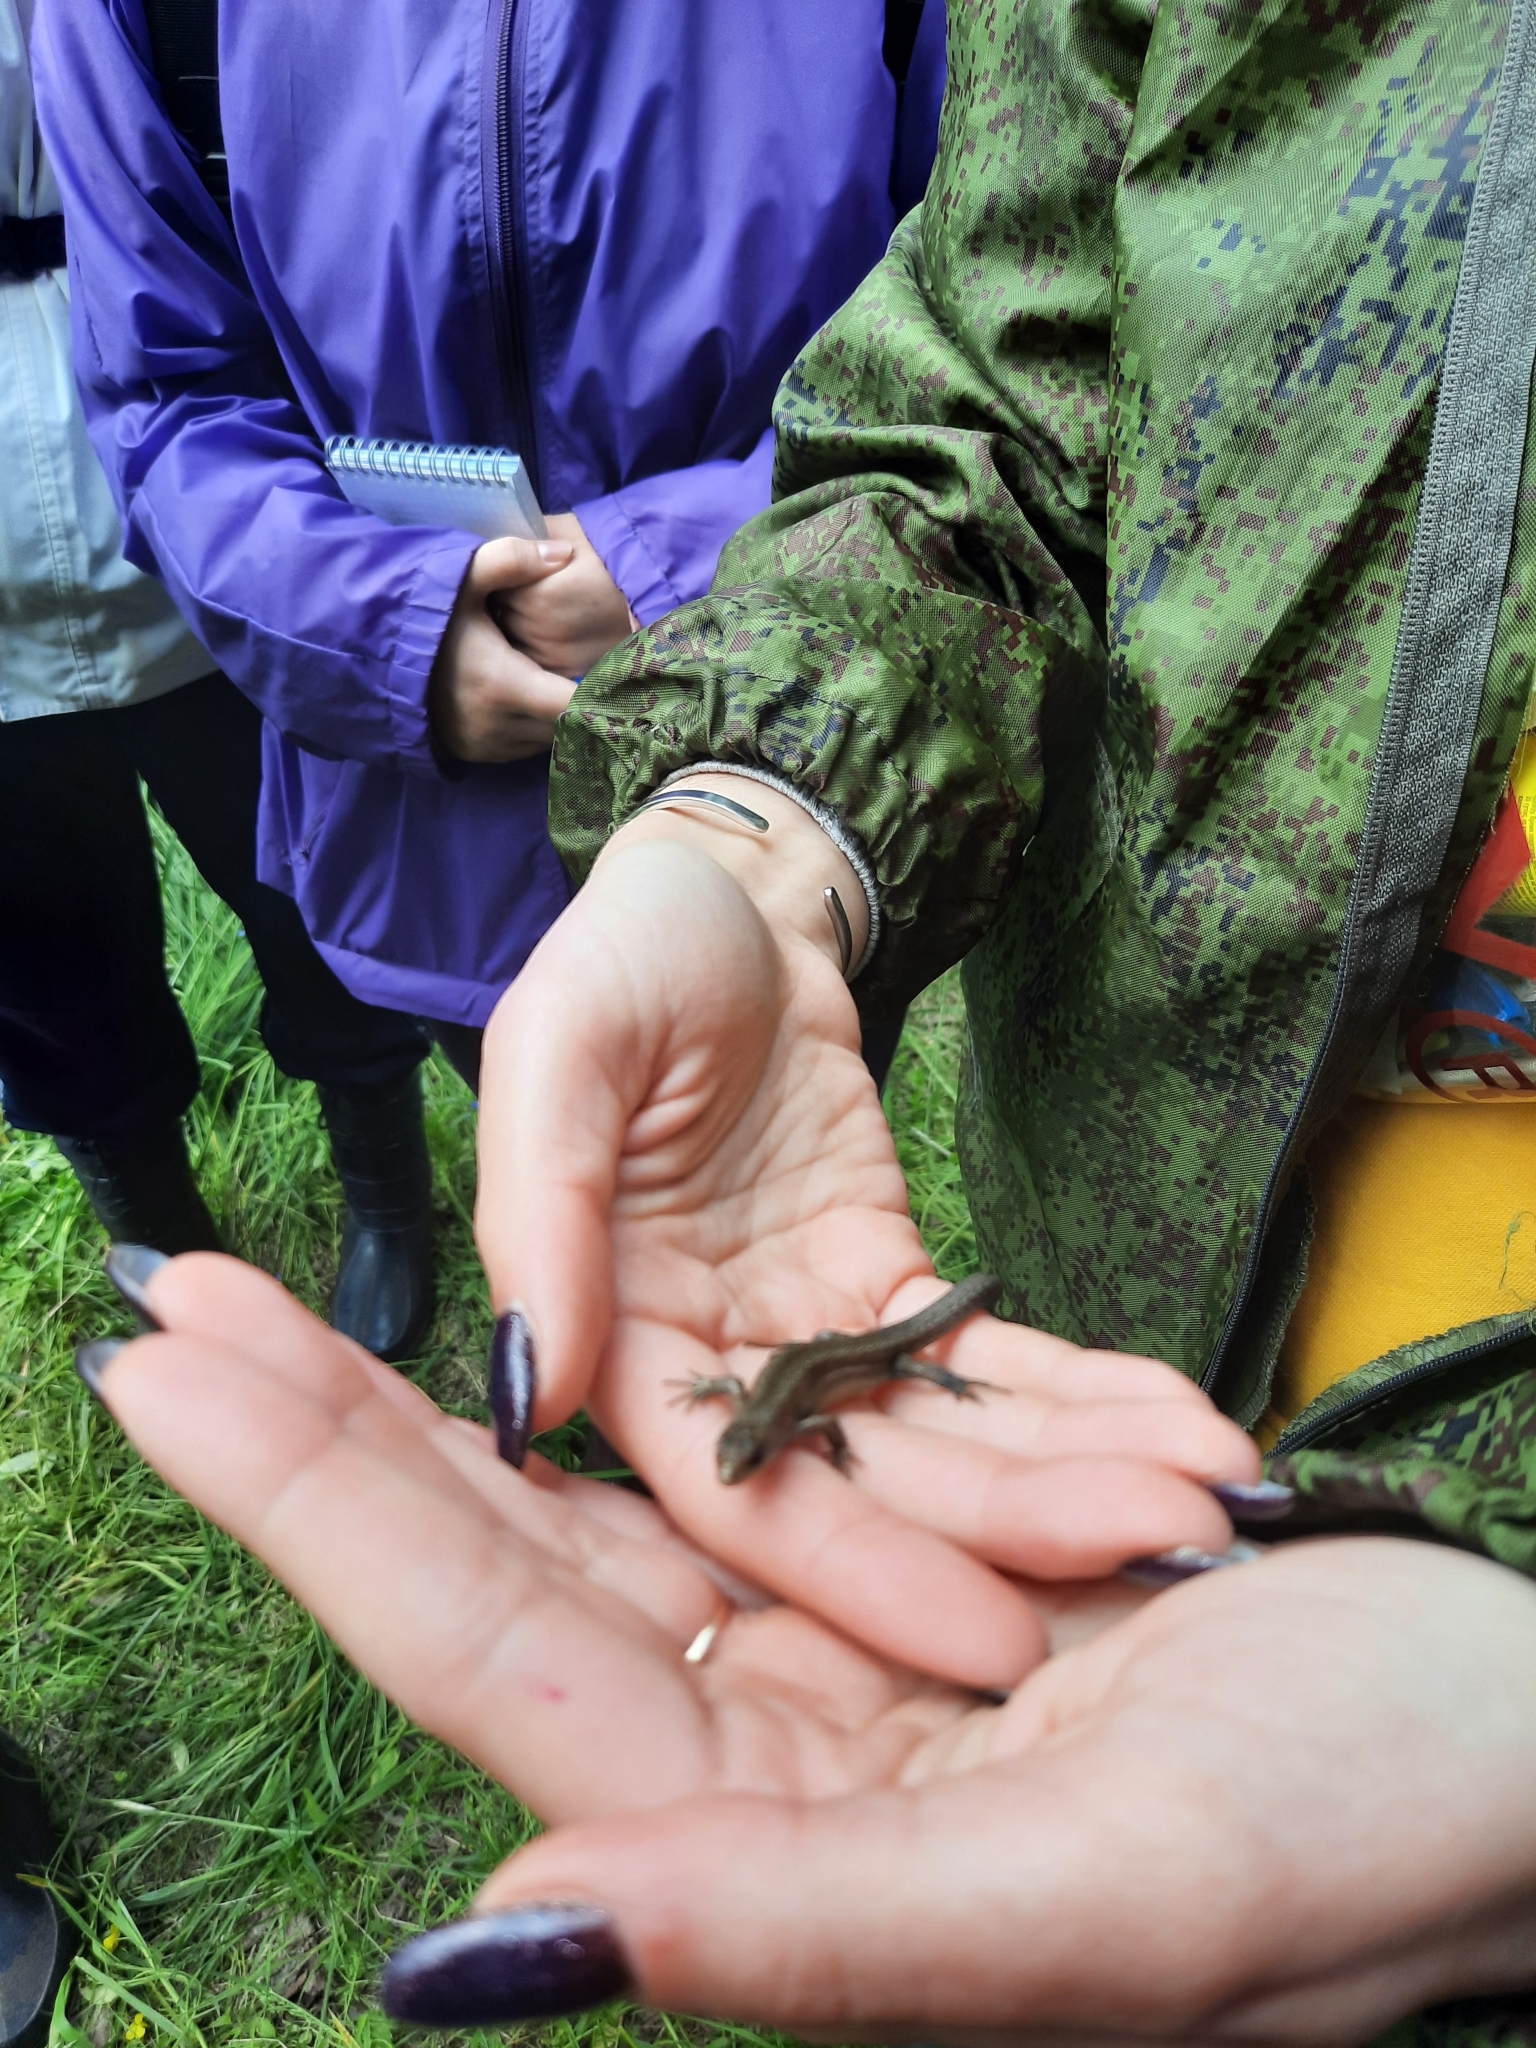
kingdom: Animalia
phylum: Chordata
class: Squamata
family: Lacertidae
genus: Zootoca
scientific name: Zootoca vivipara
